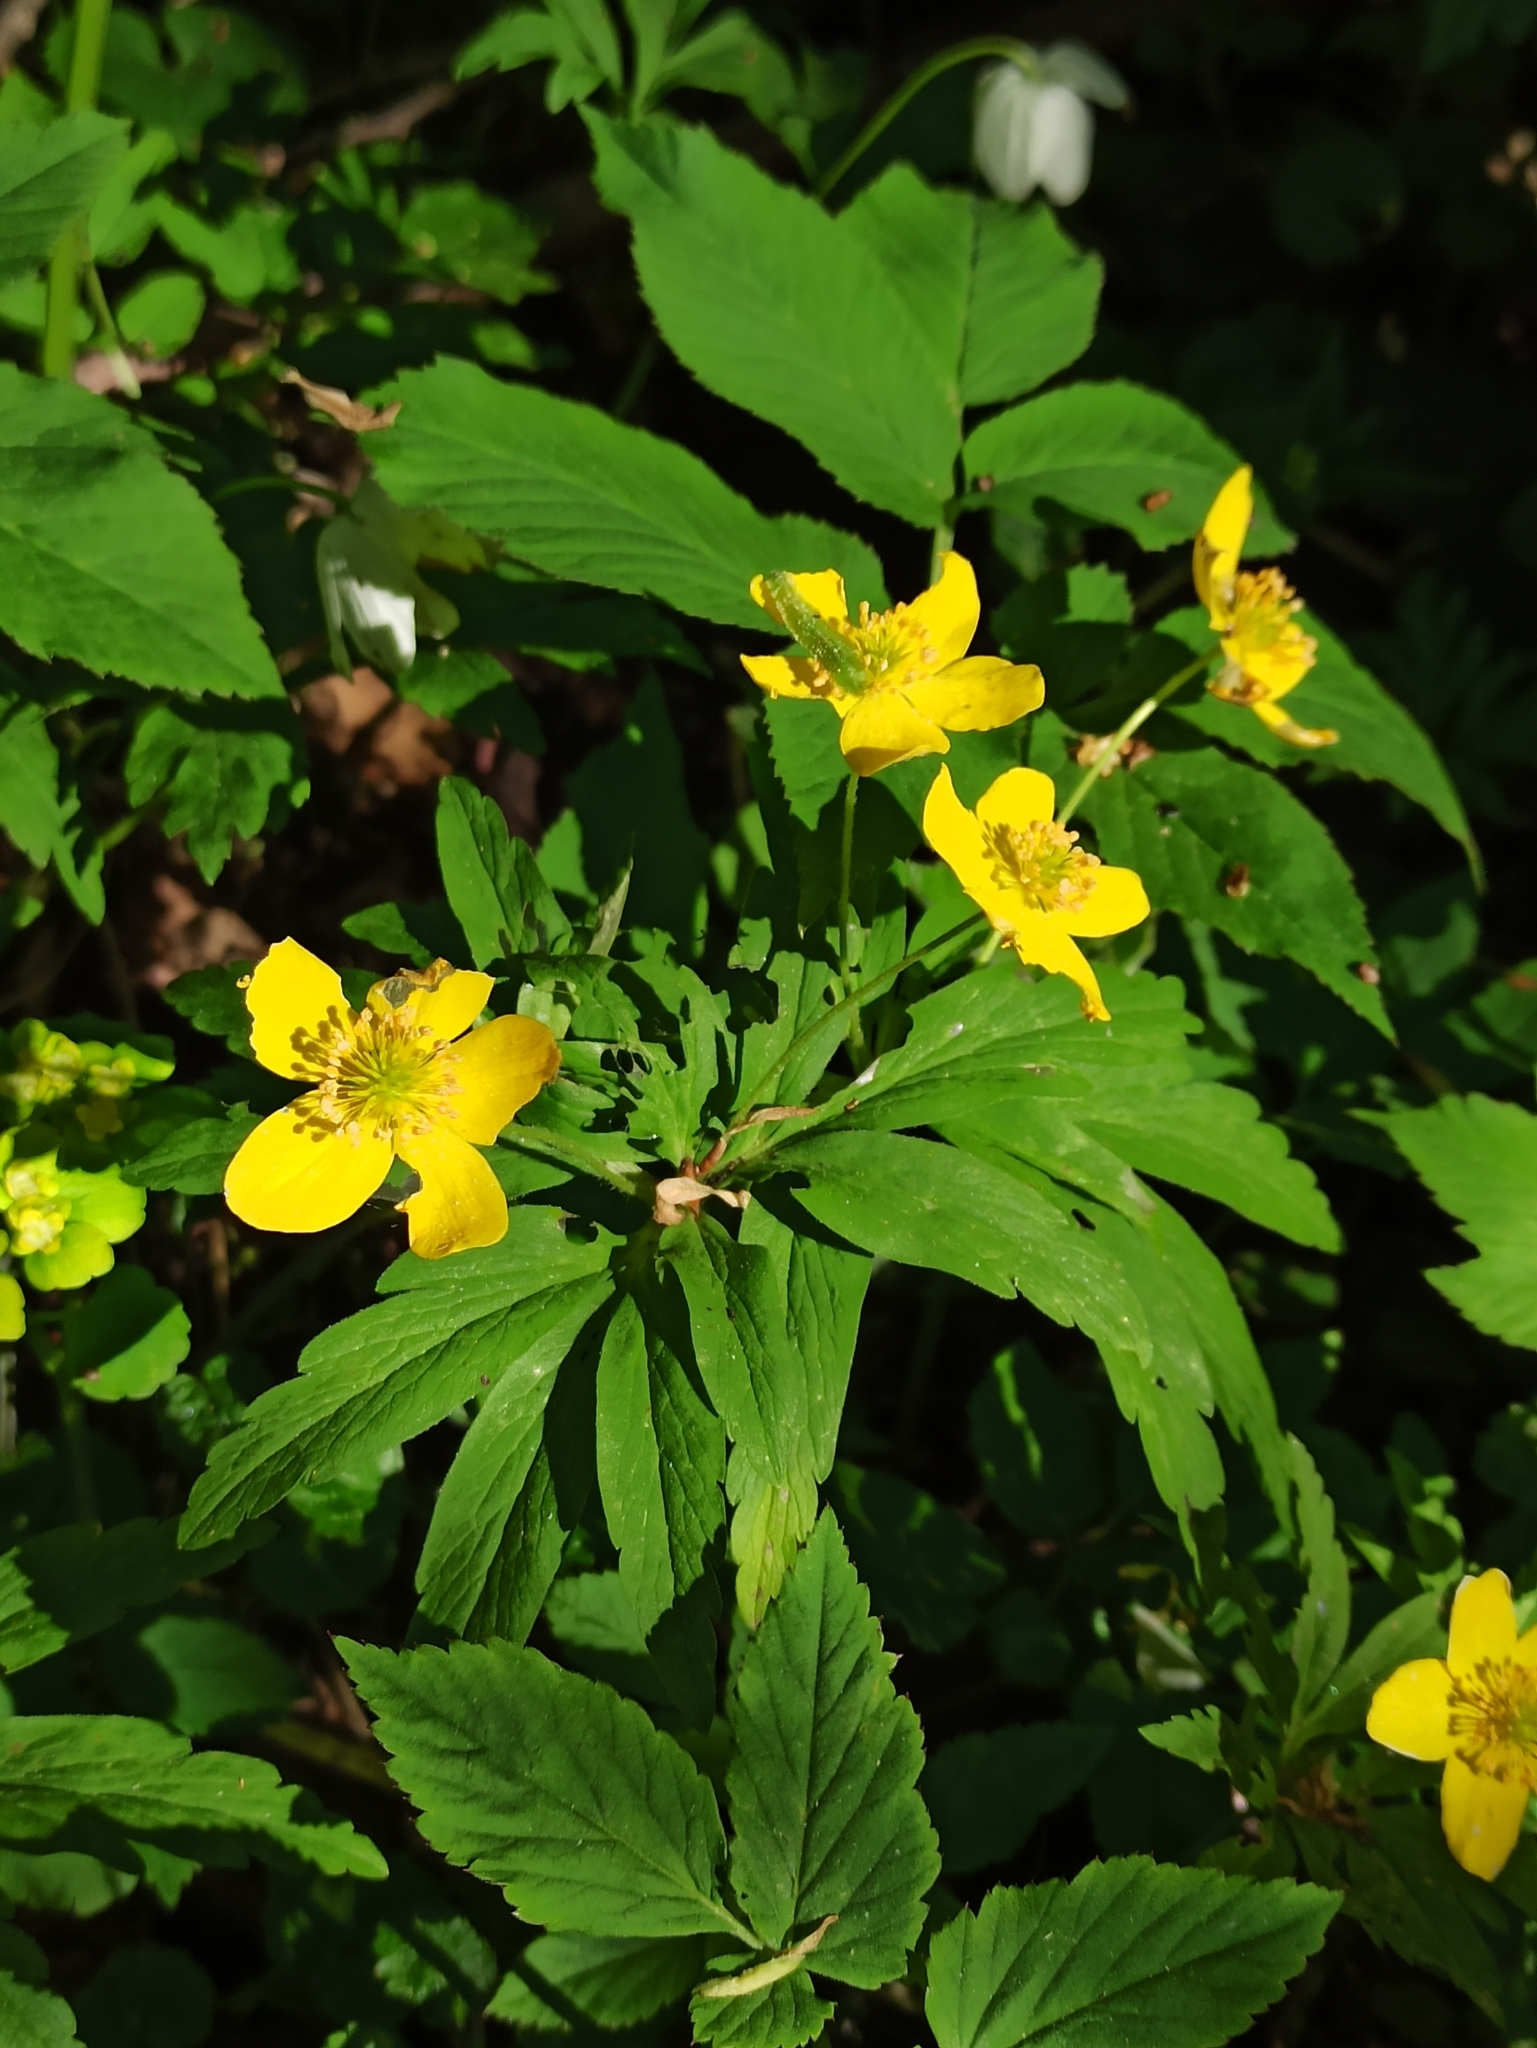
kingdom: Plantae
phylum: Tracheophyta
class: Magnoliopsida
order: Ranunculales
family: Ranunculaceae
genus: Anemone
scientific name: Anemone ranunculoides
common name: Yellow anemone
